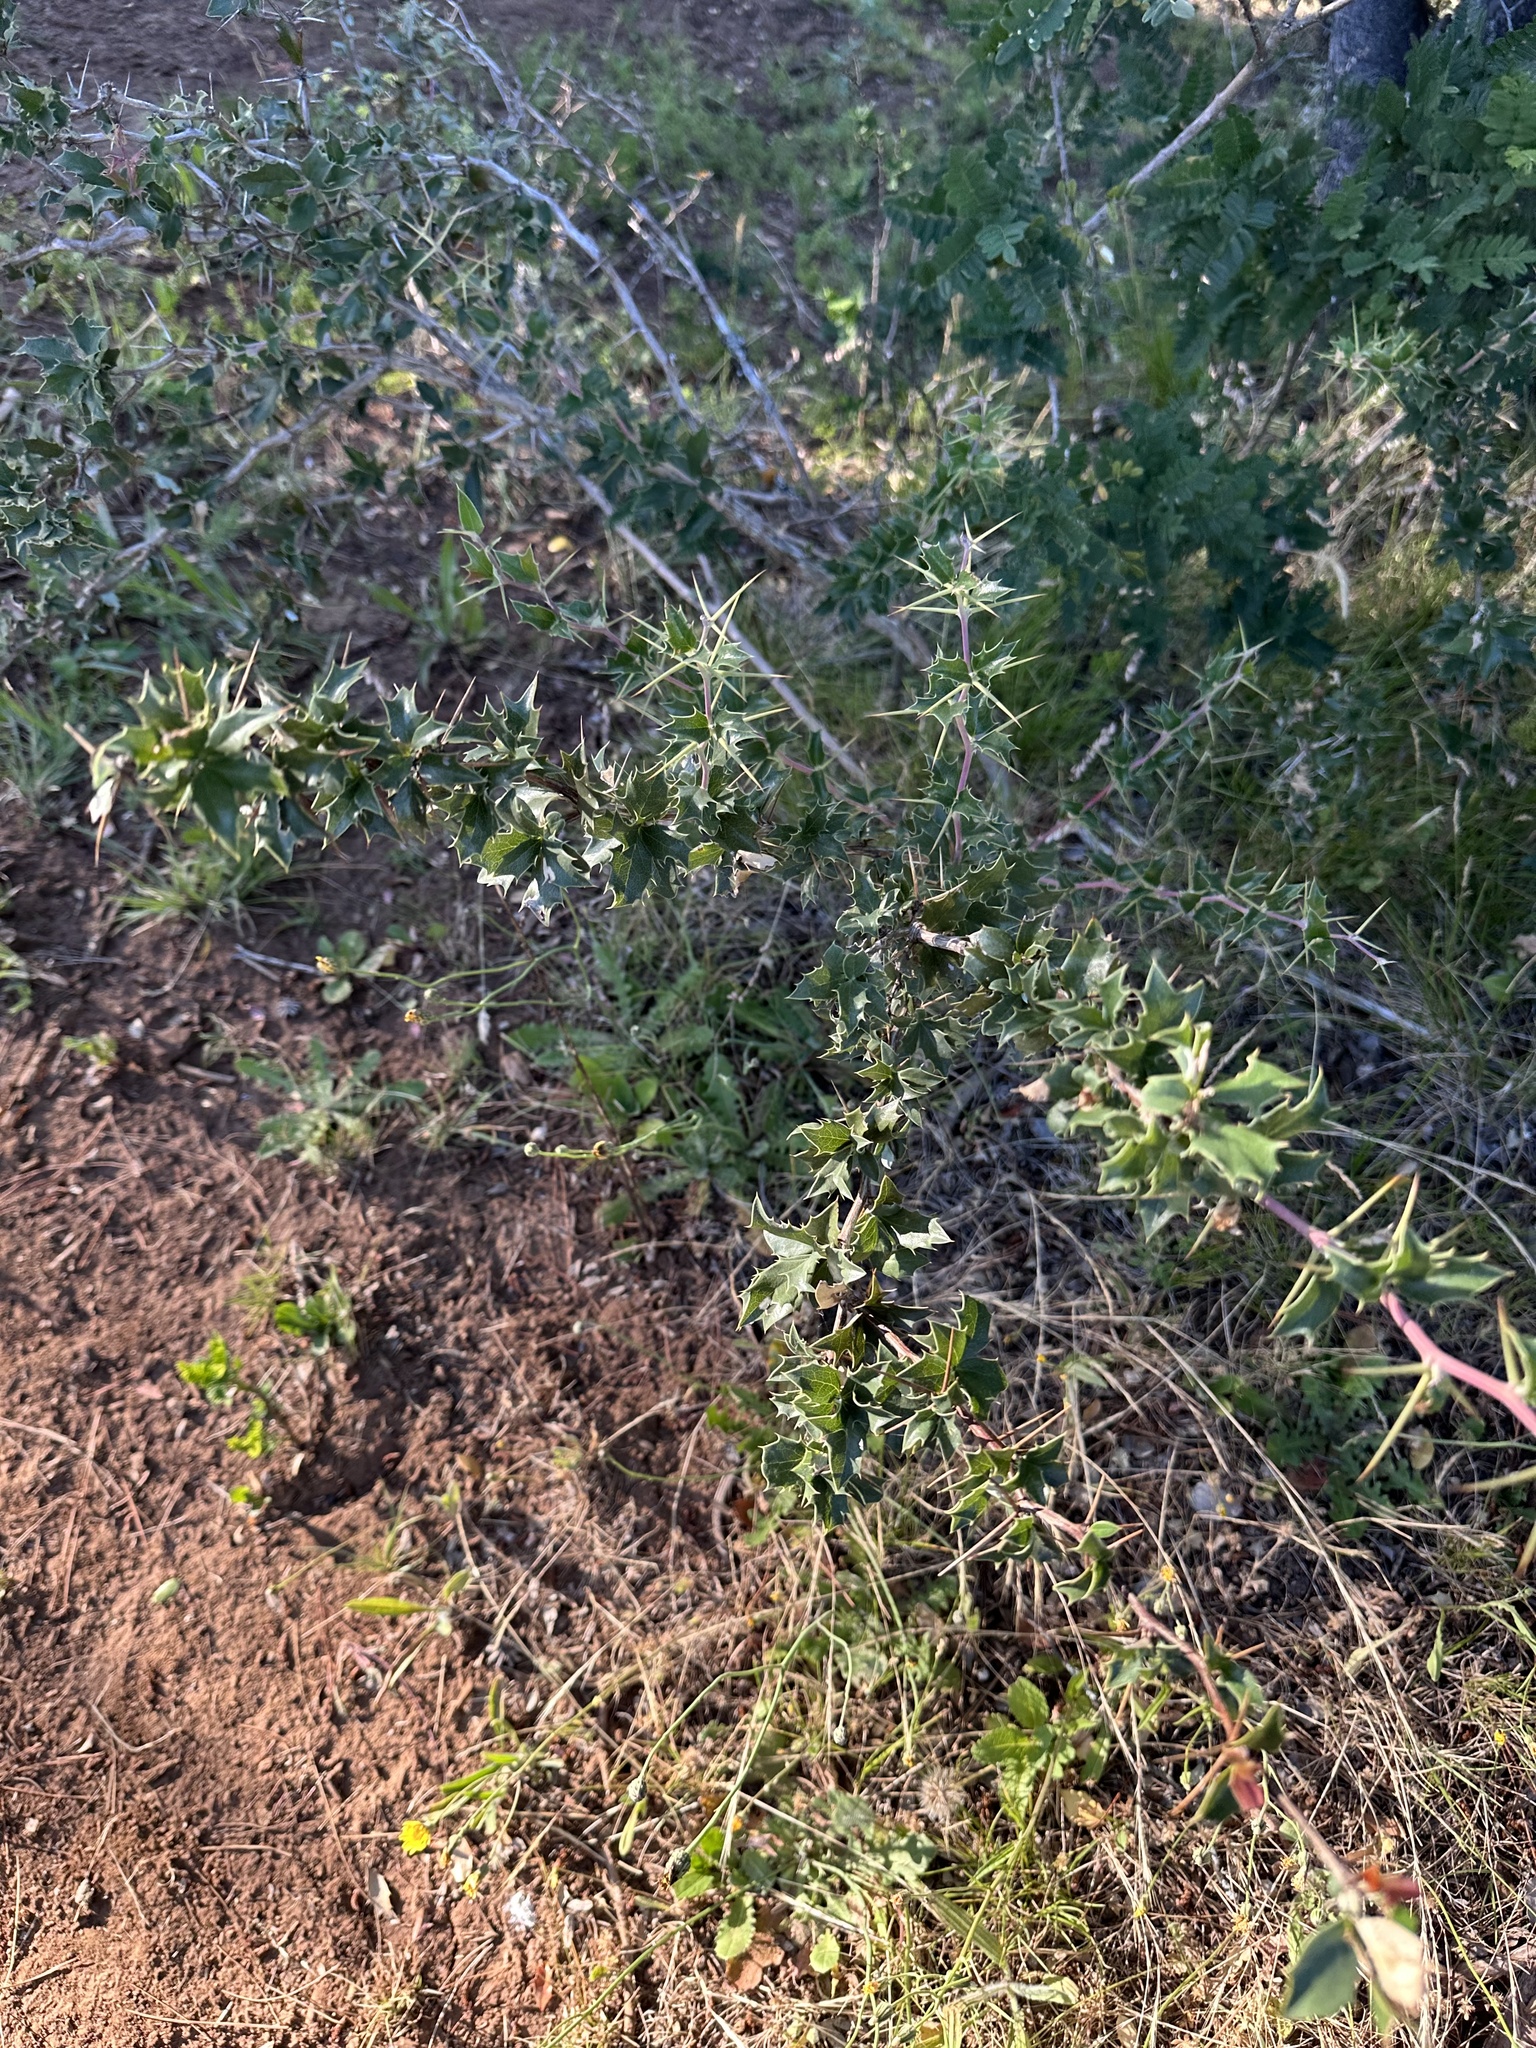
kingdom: Plantae
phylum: Tracheophyta
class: Magnoliopsida
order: Ranunculales
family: Berberidaceae
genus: Berberis
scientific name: Berberis chilensis
